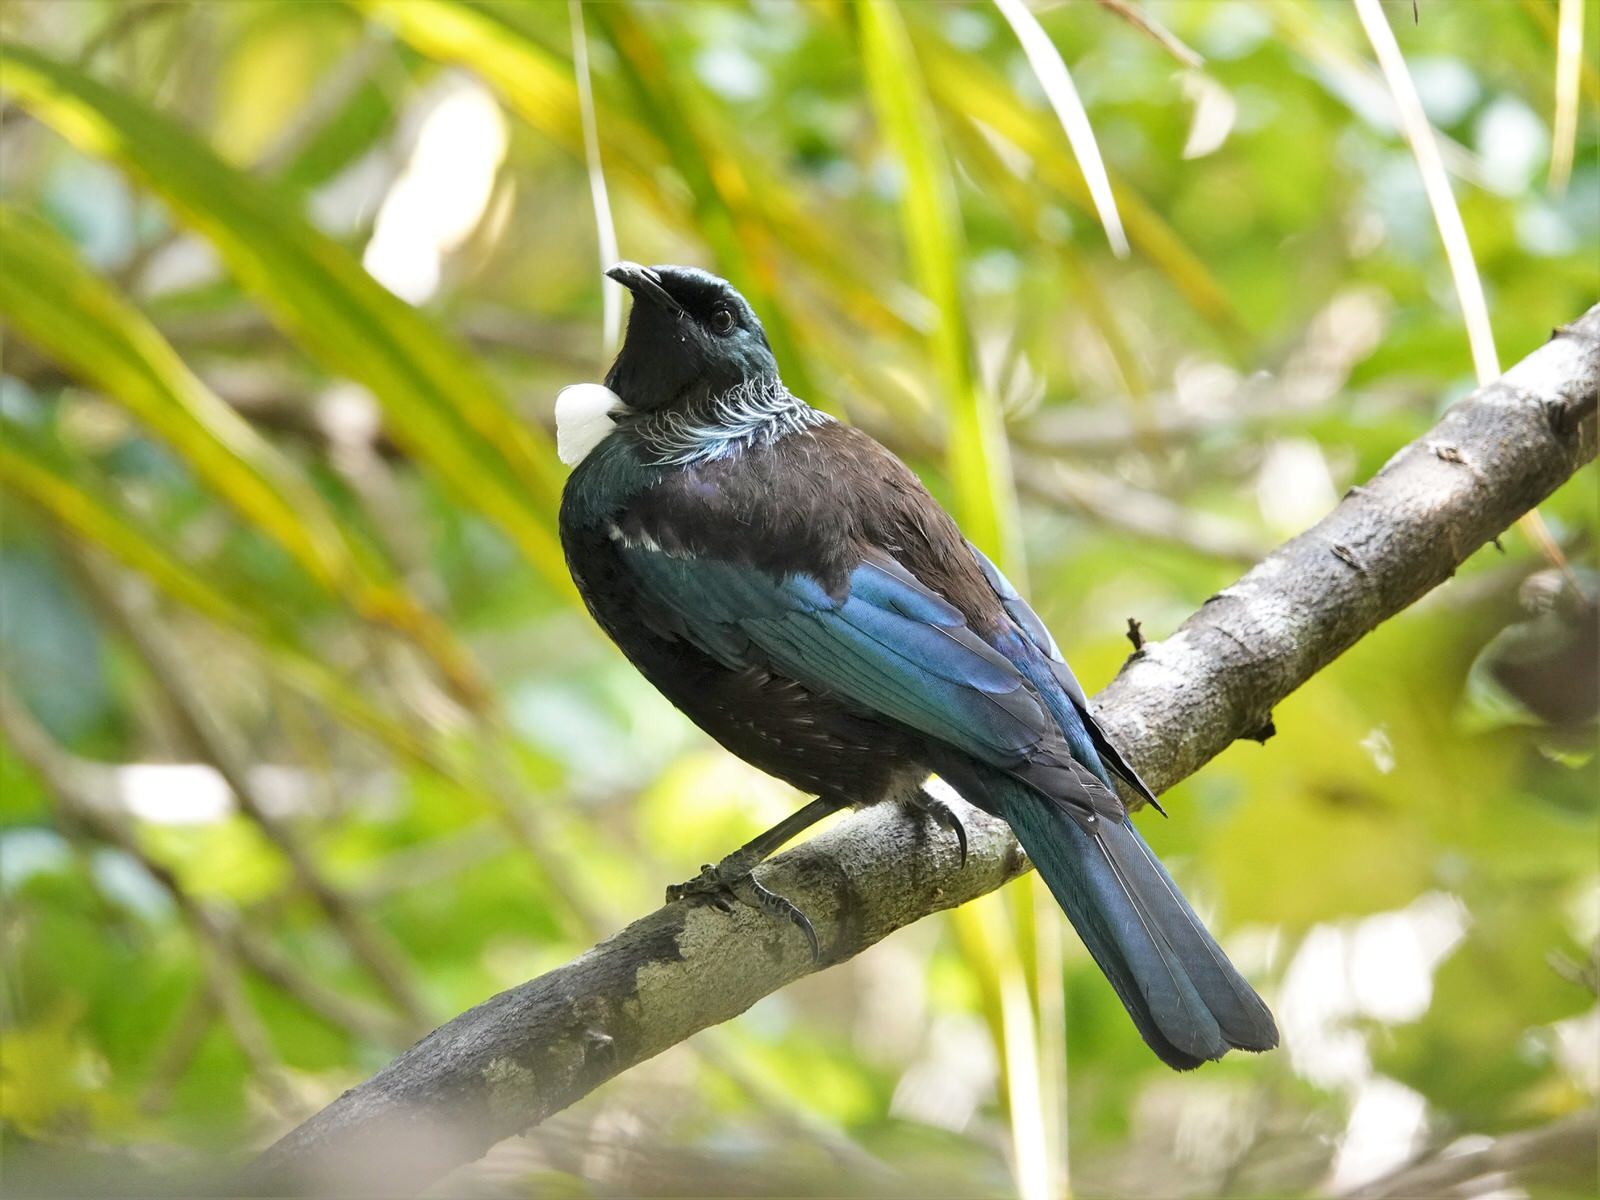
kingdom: Animalia
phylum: Chordata
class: Aves
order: Passeriformes
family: Meliphagidae
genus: Prosthemadera
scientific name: Prosthemadera novaeseelandiae
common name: Tui
